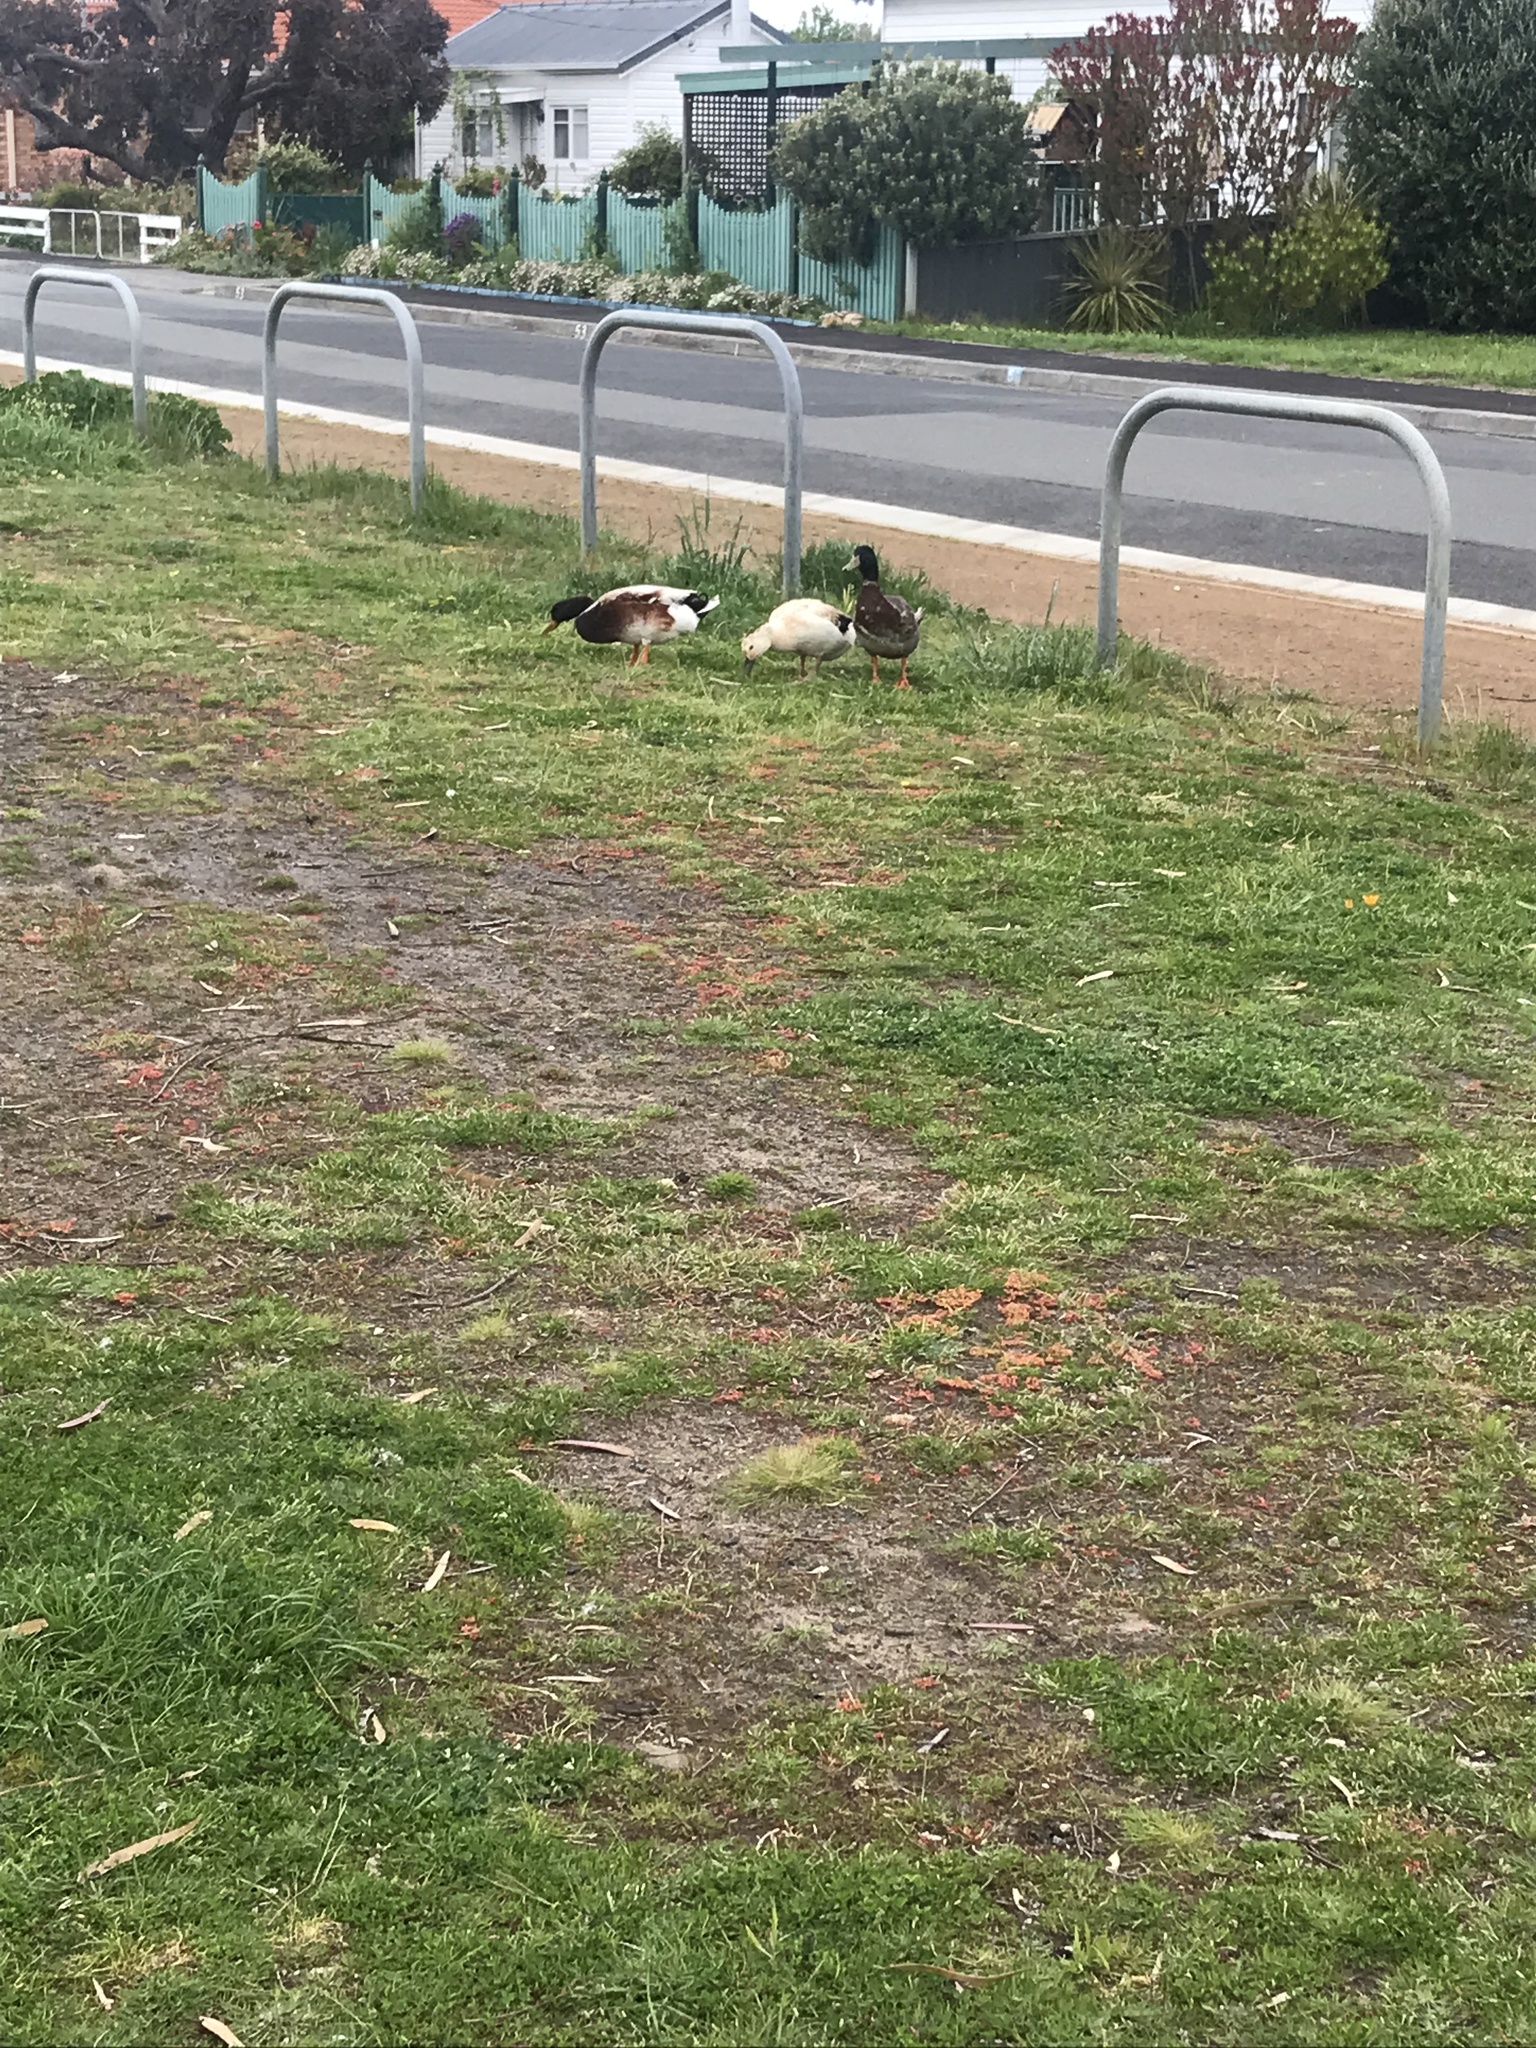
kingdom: Animalia
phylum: Chordata
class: Aves
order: Anseriformes
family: Anatidae
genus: Anas
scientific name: Anas platyrhynchos
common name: Mallard
